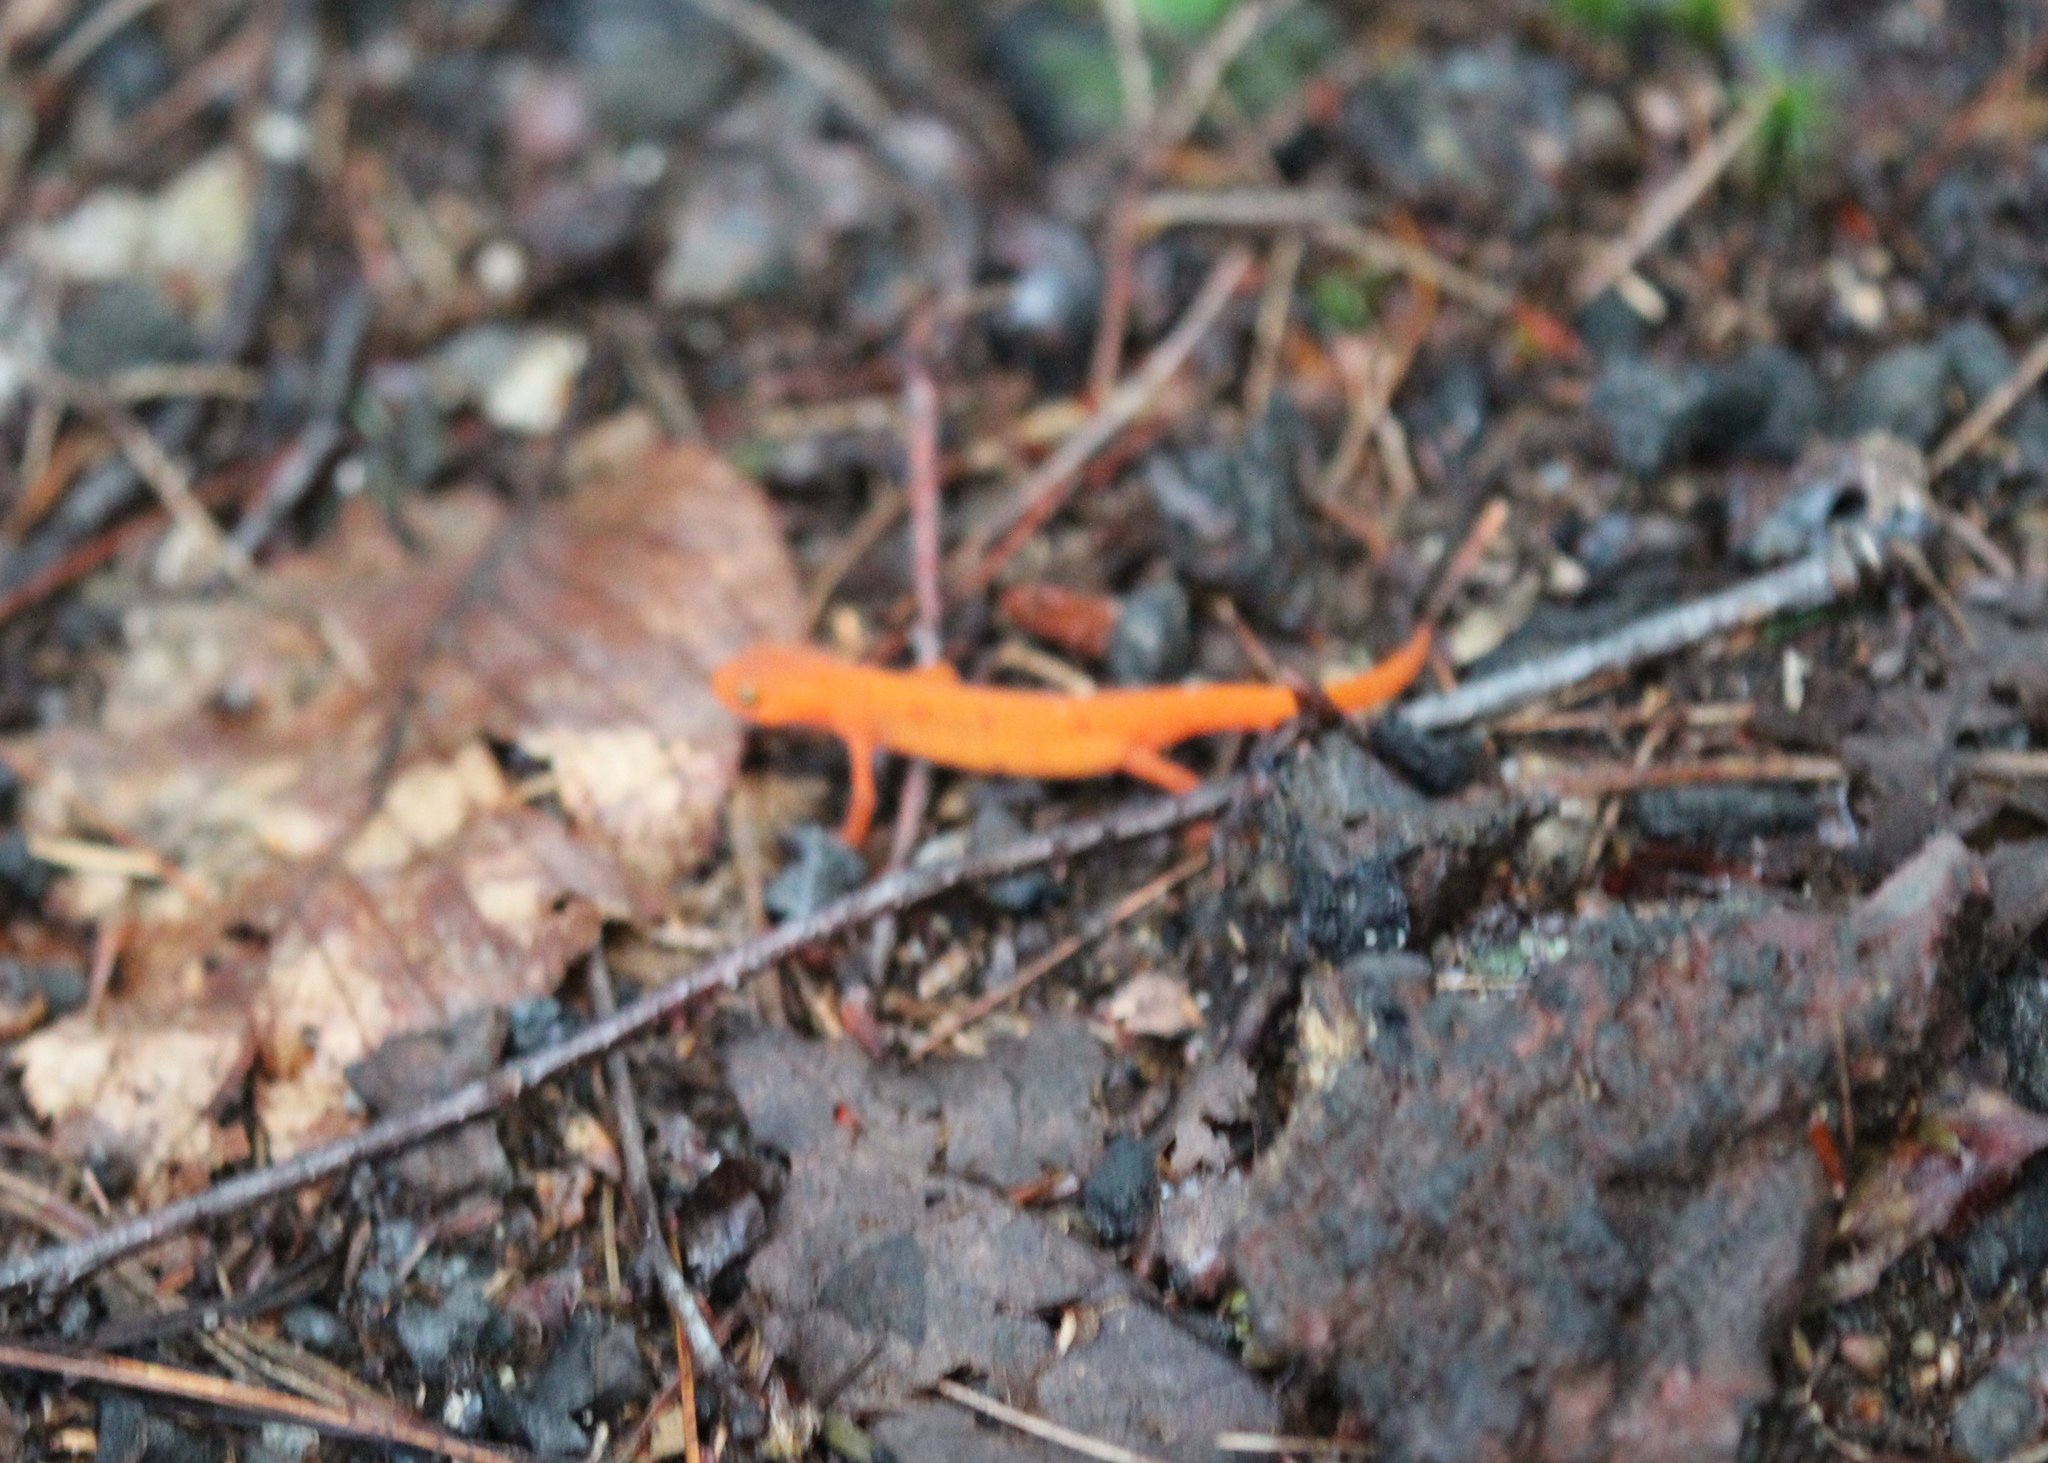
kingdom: Animalia
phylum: Chordata
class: Amphibia
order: Caudata
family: Salamandridae
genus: Notophthalmus
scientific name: Notophthalmus viridescens
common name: Eastern newt
